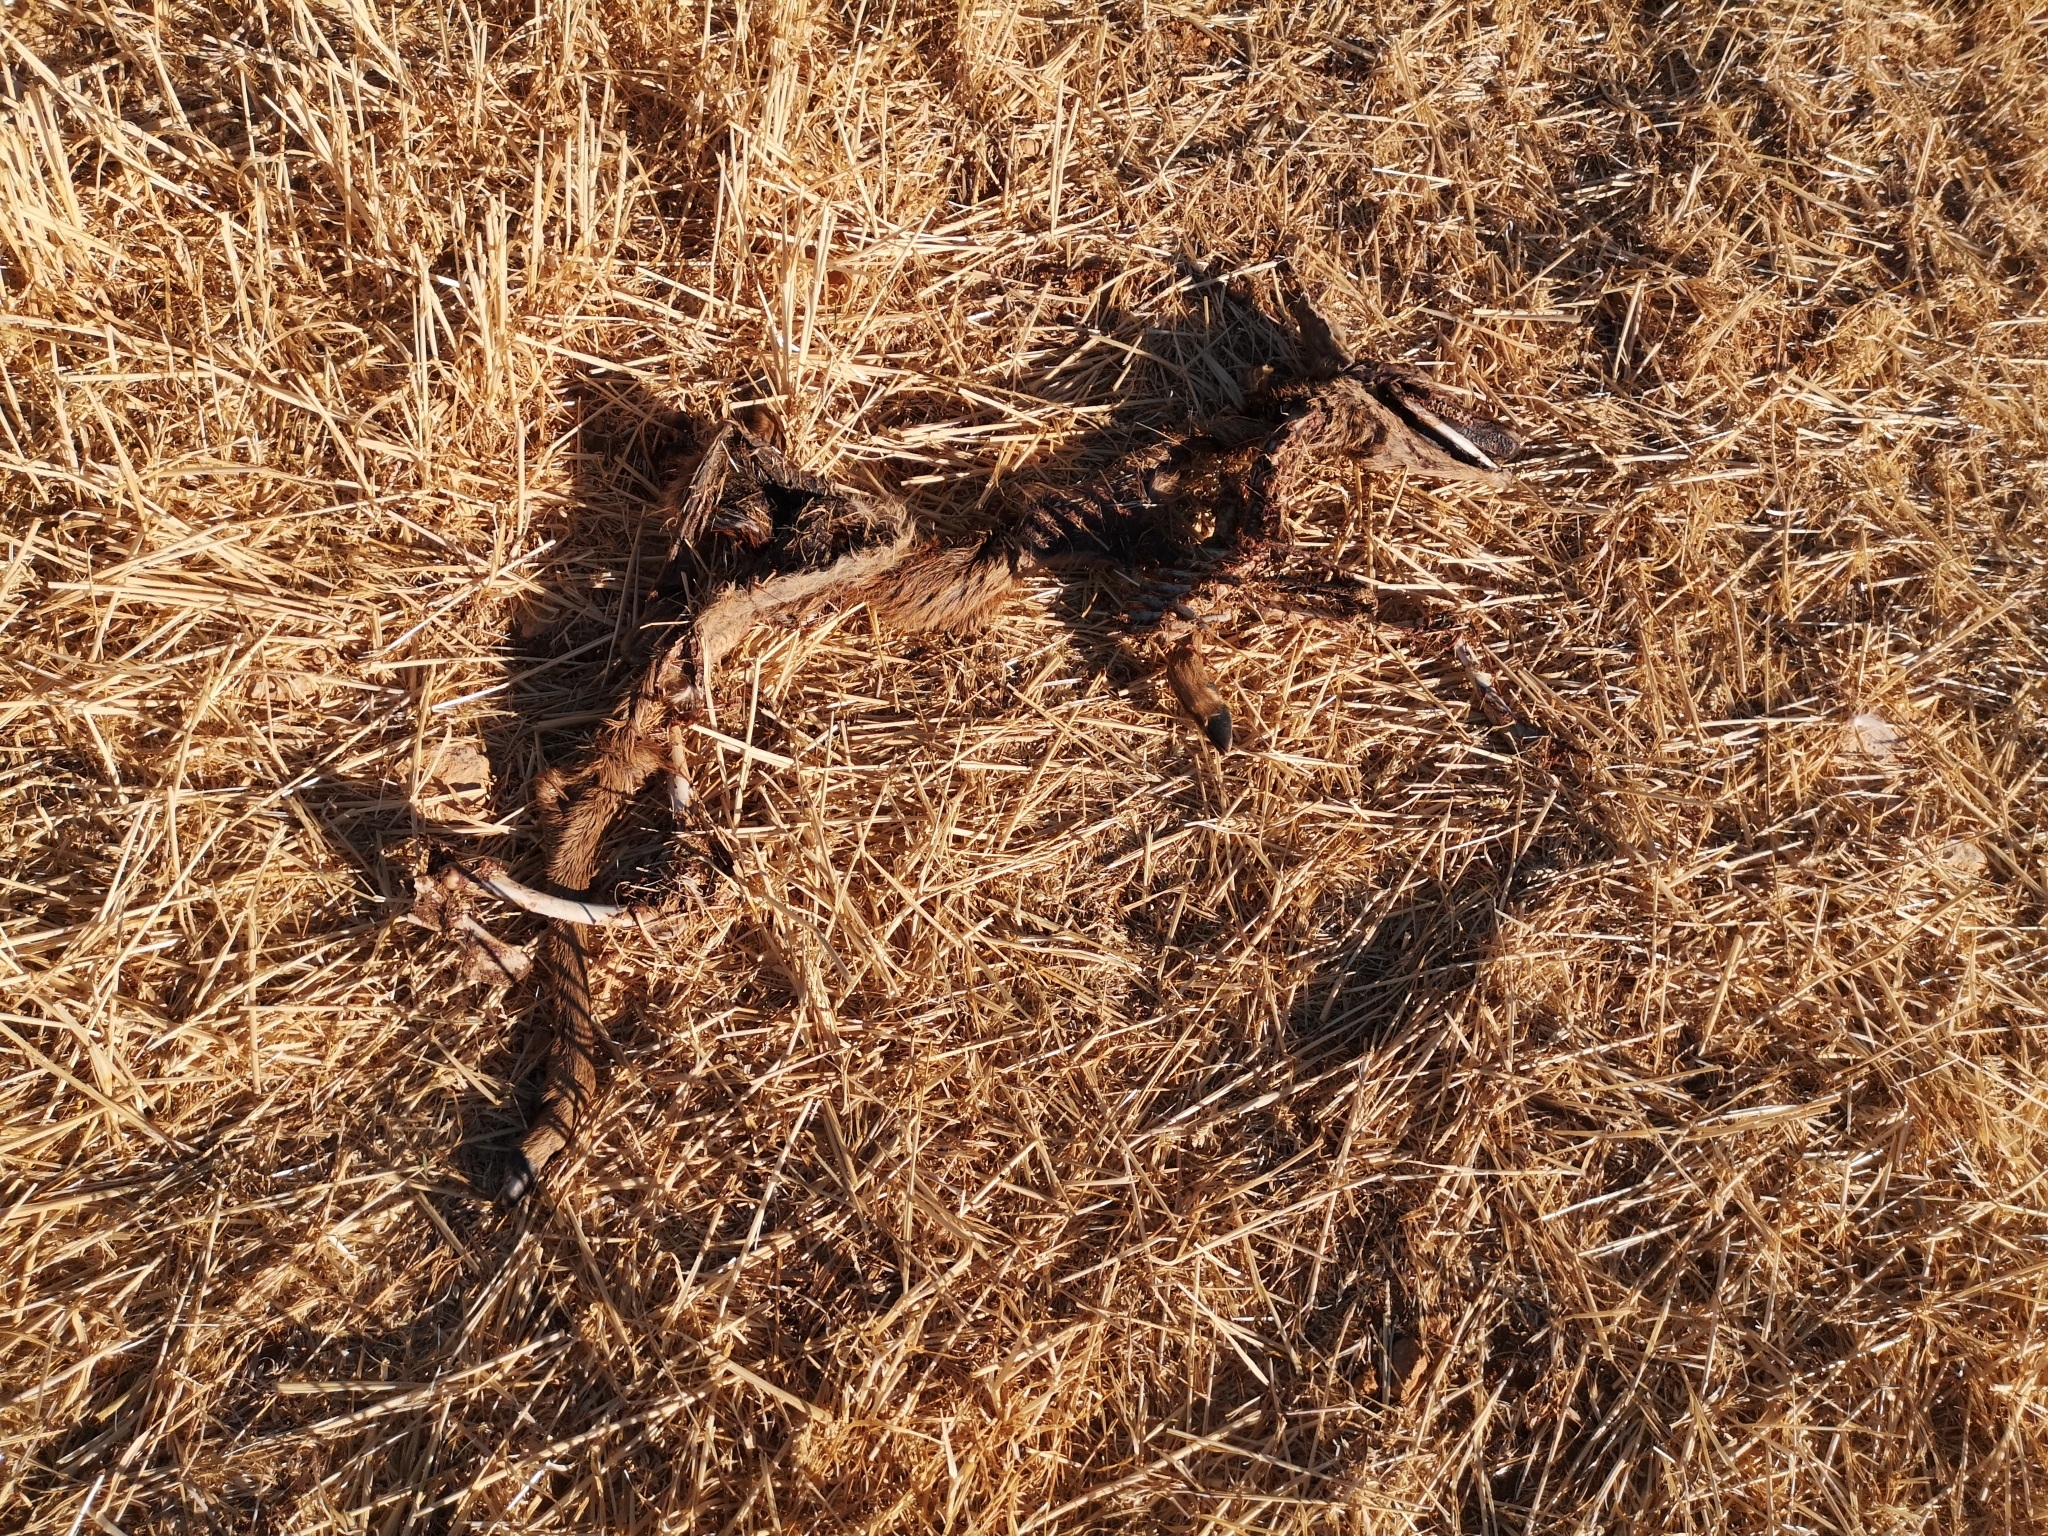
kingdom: Animalia
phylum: Chordata
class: Mammalia
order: Artiodactyla
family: Cervidae
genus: Capreolus
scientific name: Capreolus capreolus
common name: Western roe deer
